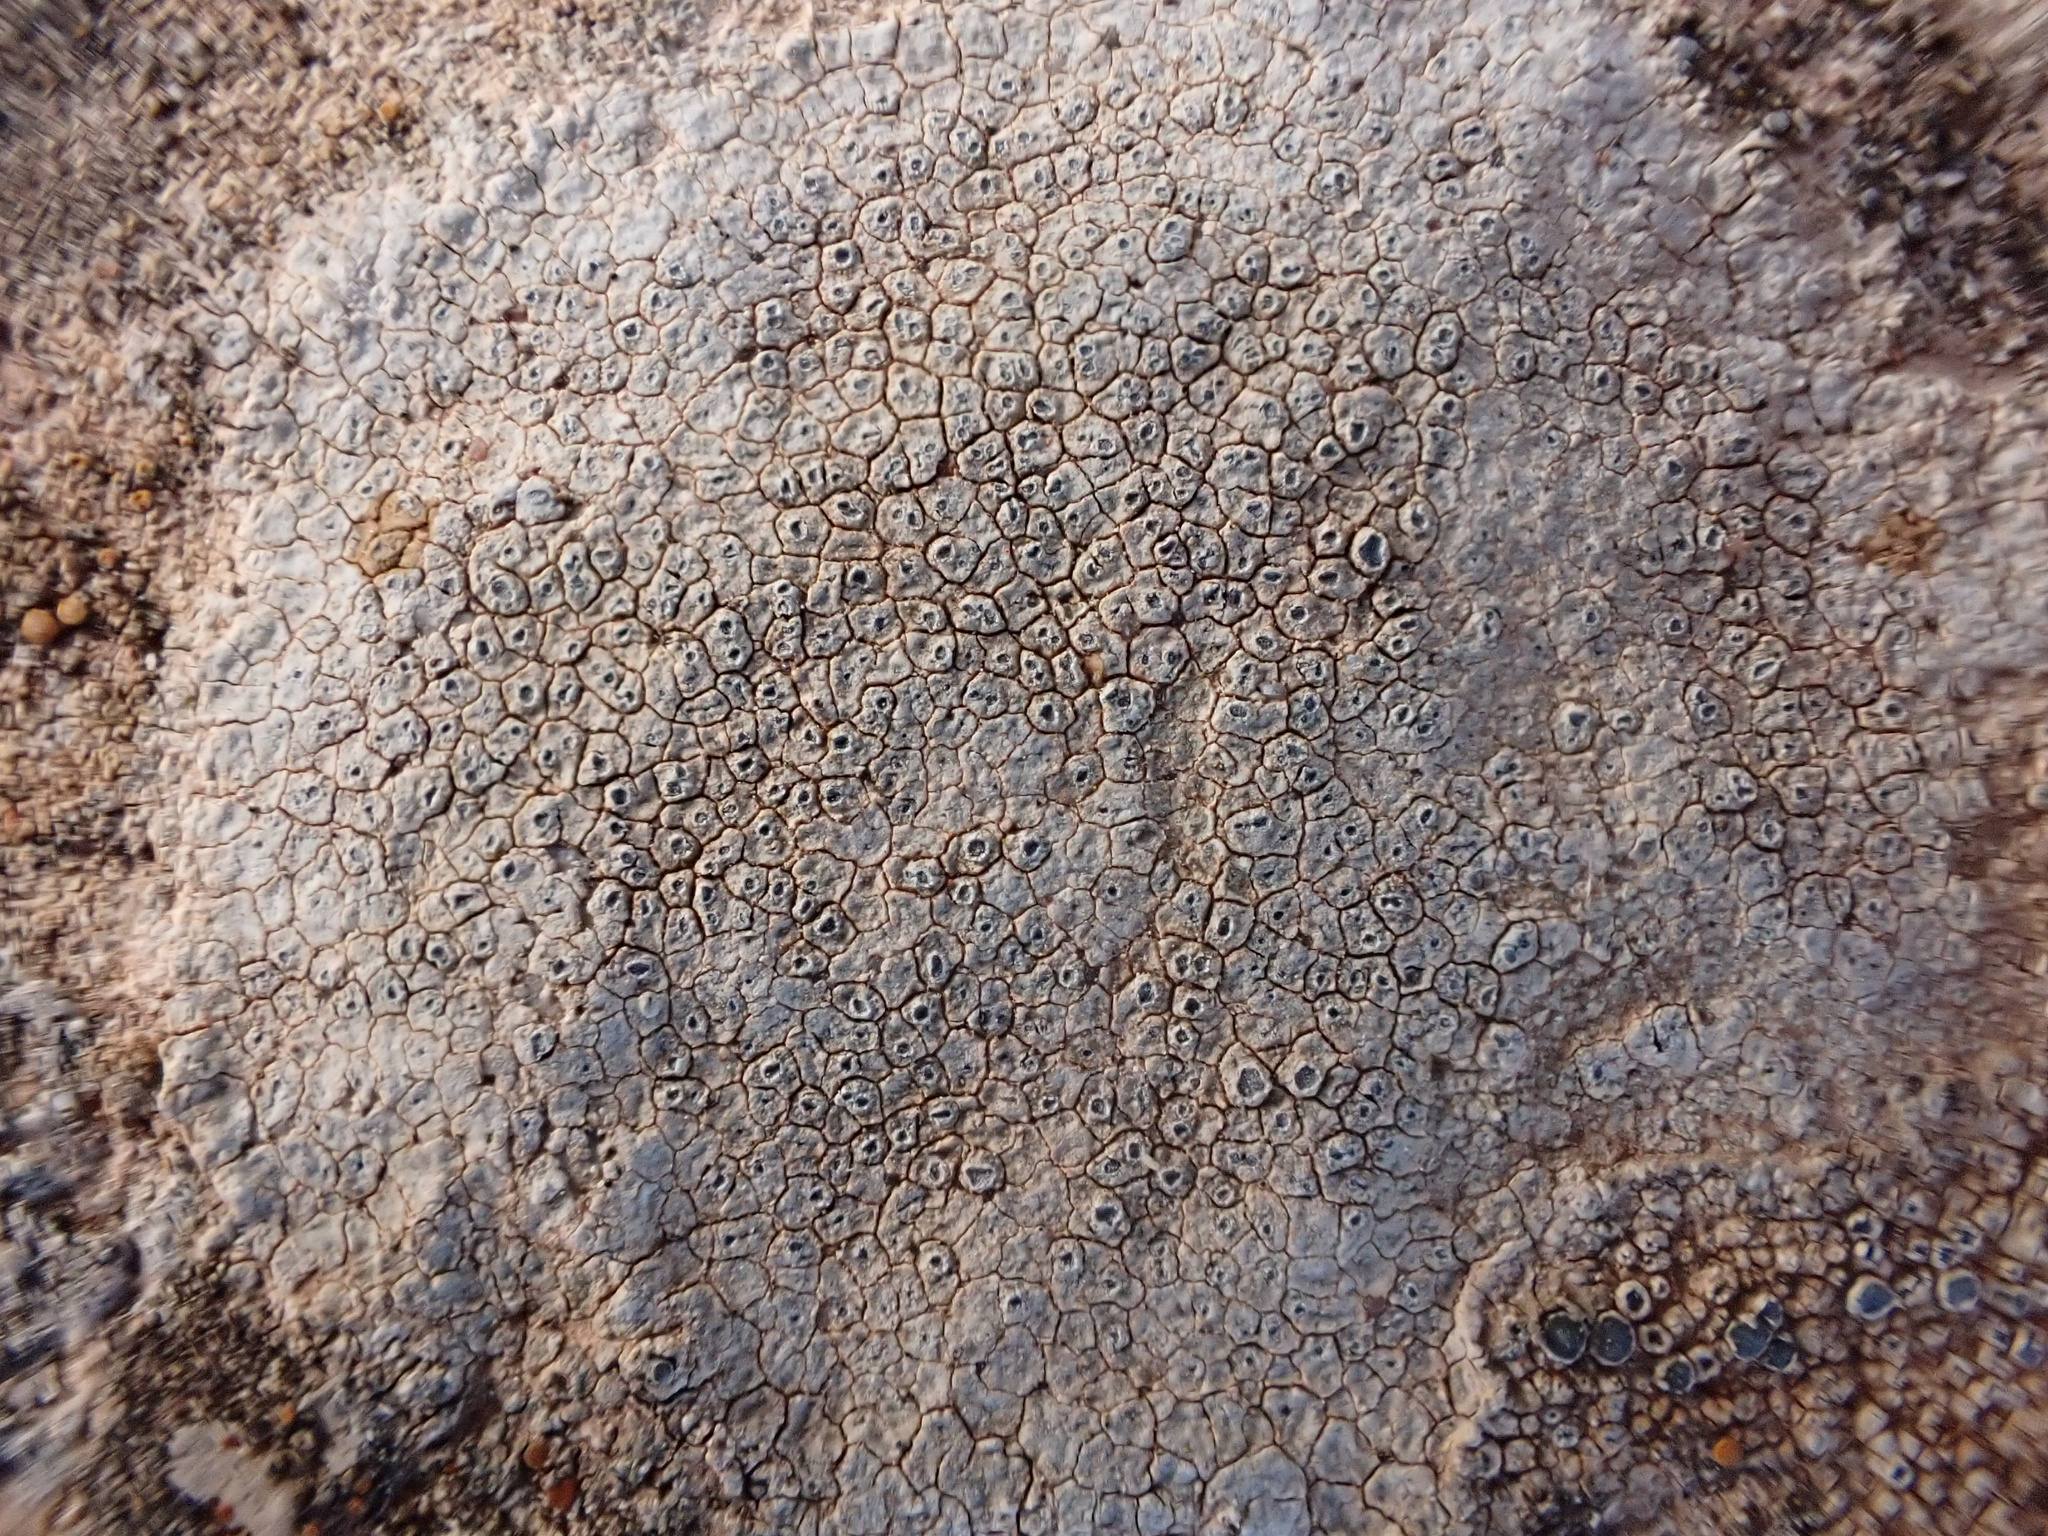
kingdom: Fungi
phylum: Ascomycota
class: Lecanoromycetes
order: Pertusariales
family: Megasporaceae
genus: Circinaria
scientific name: Circinaria calcarea
